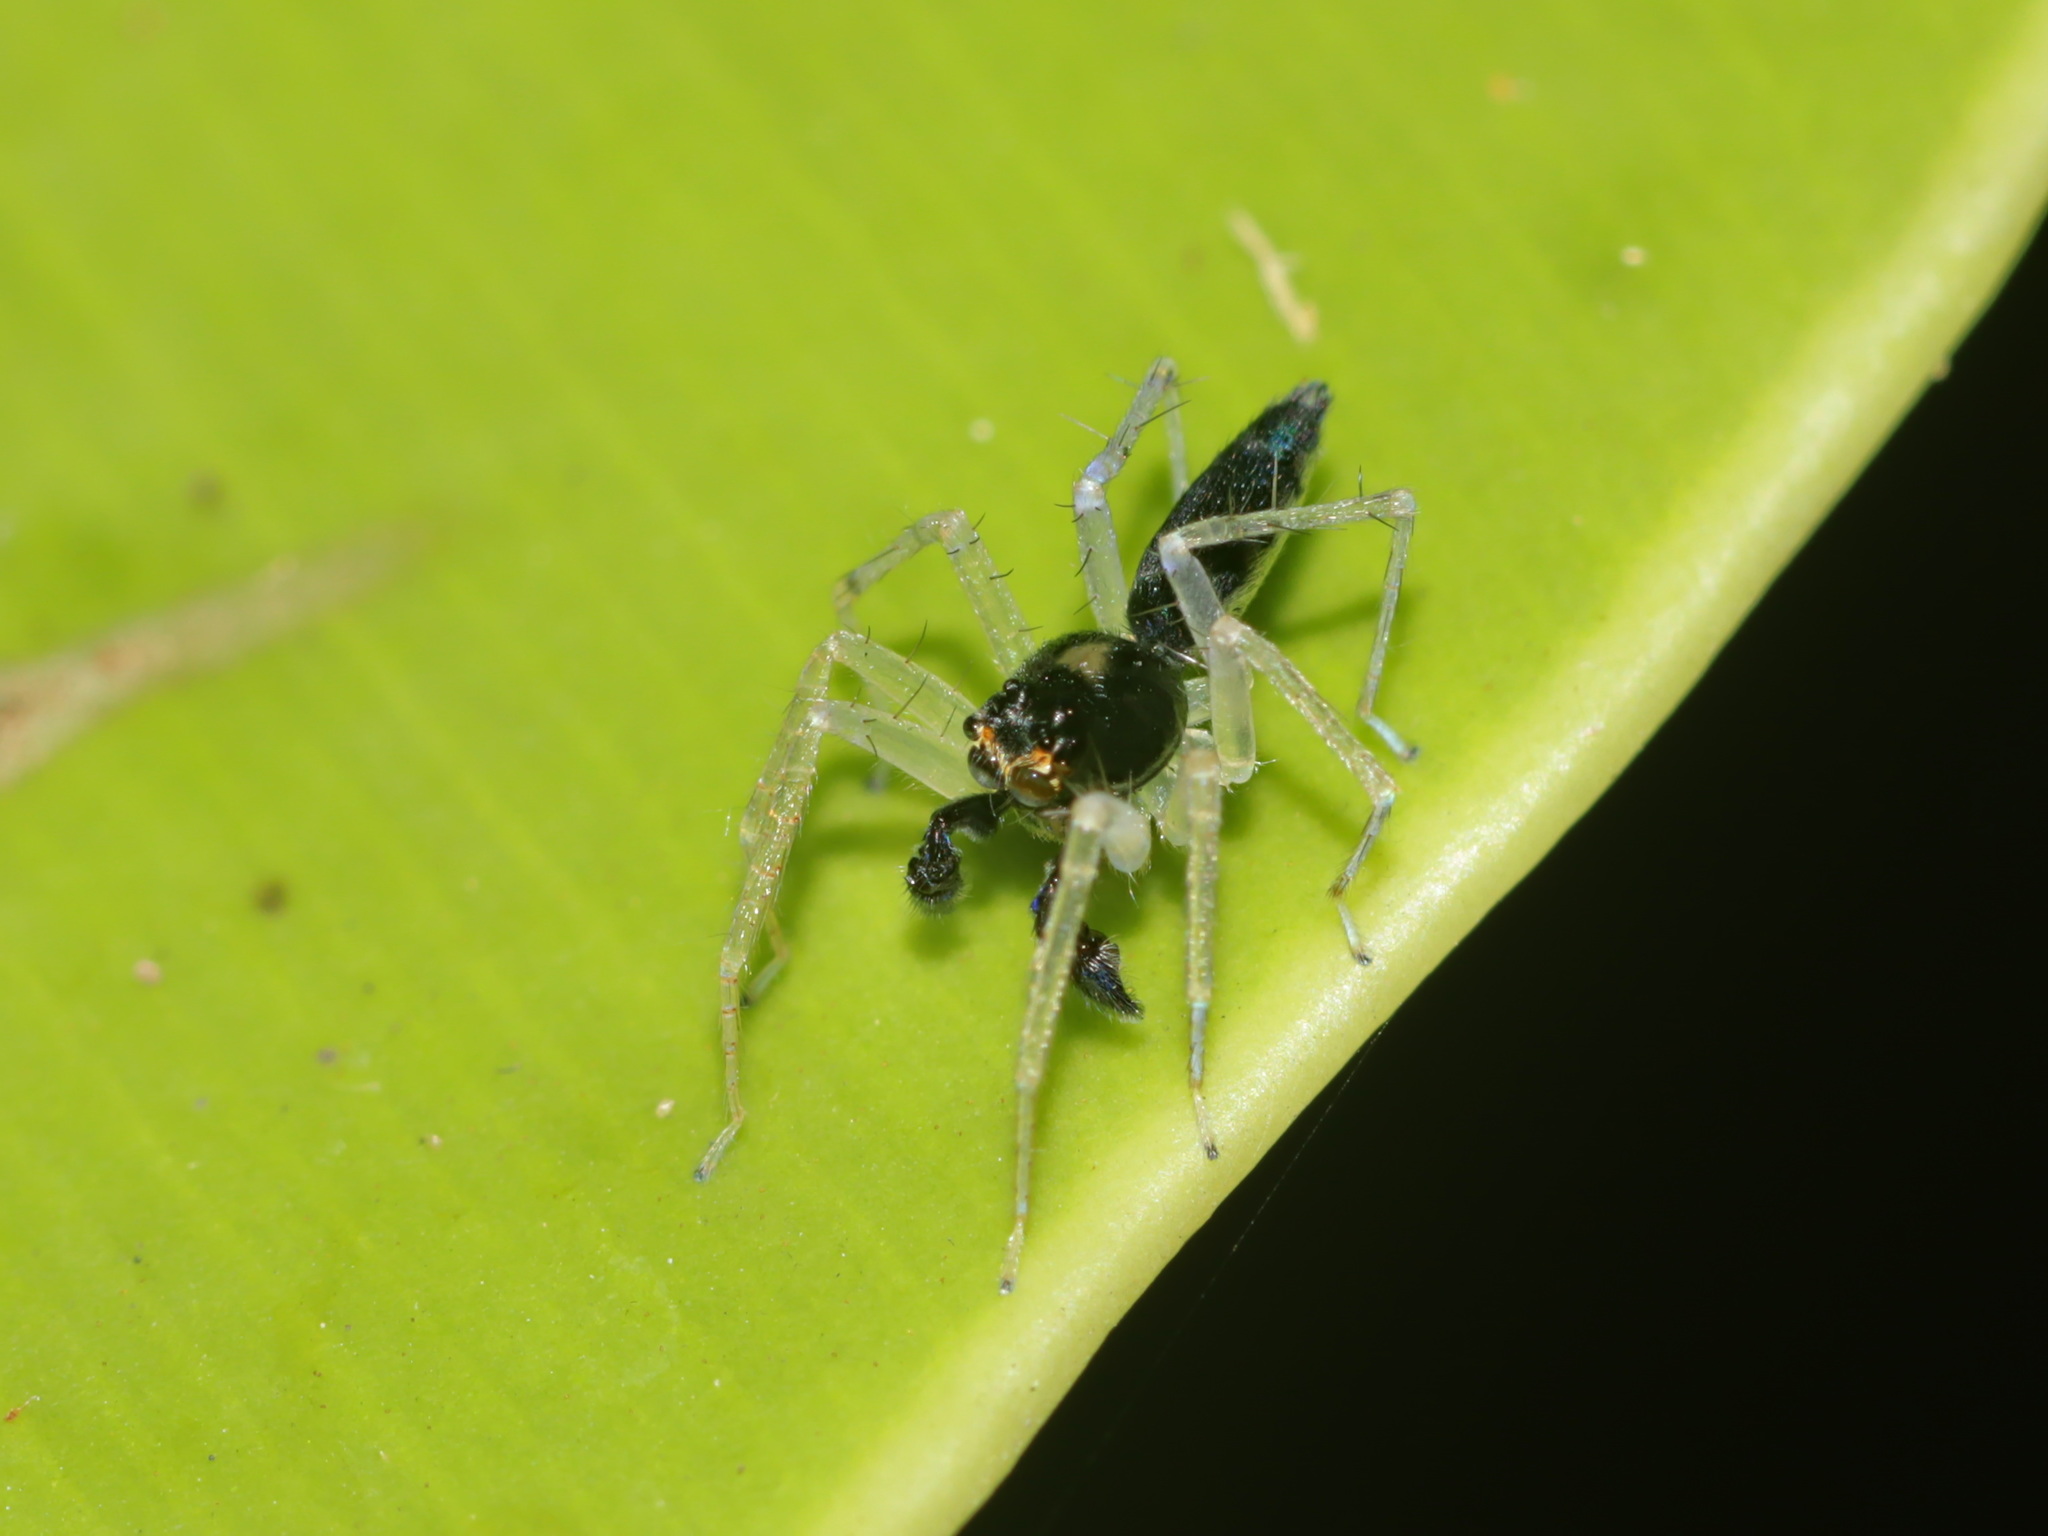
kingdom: Animalia
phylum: Arthropoda
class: Arachnida
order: Araneae
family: Salticidae
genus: Asemonea
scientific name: Asemonea cristata
